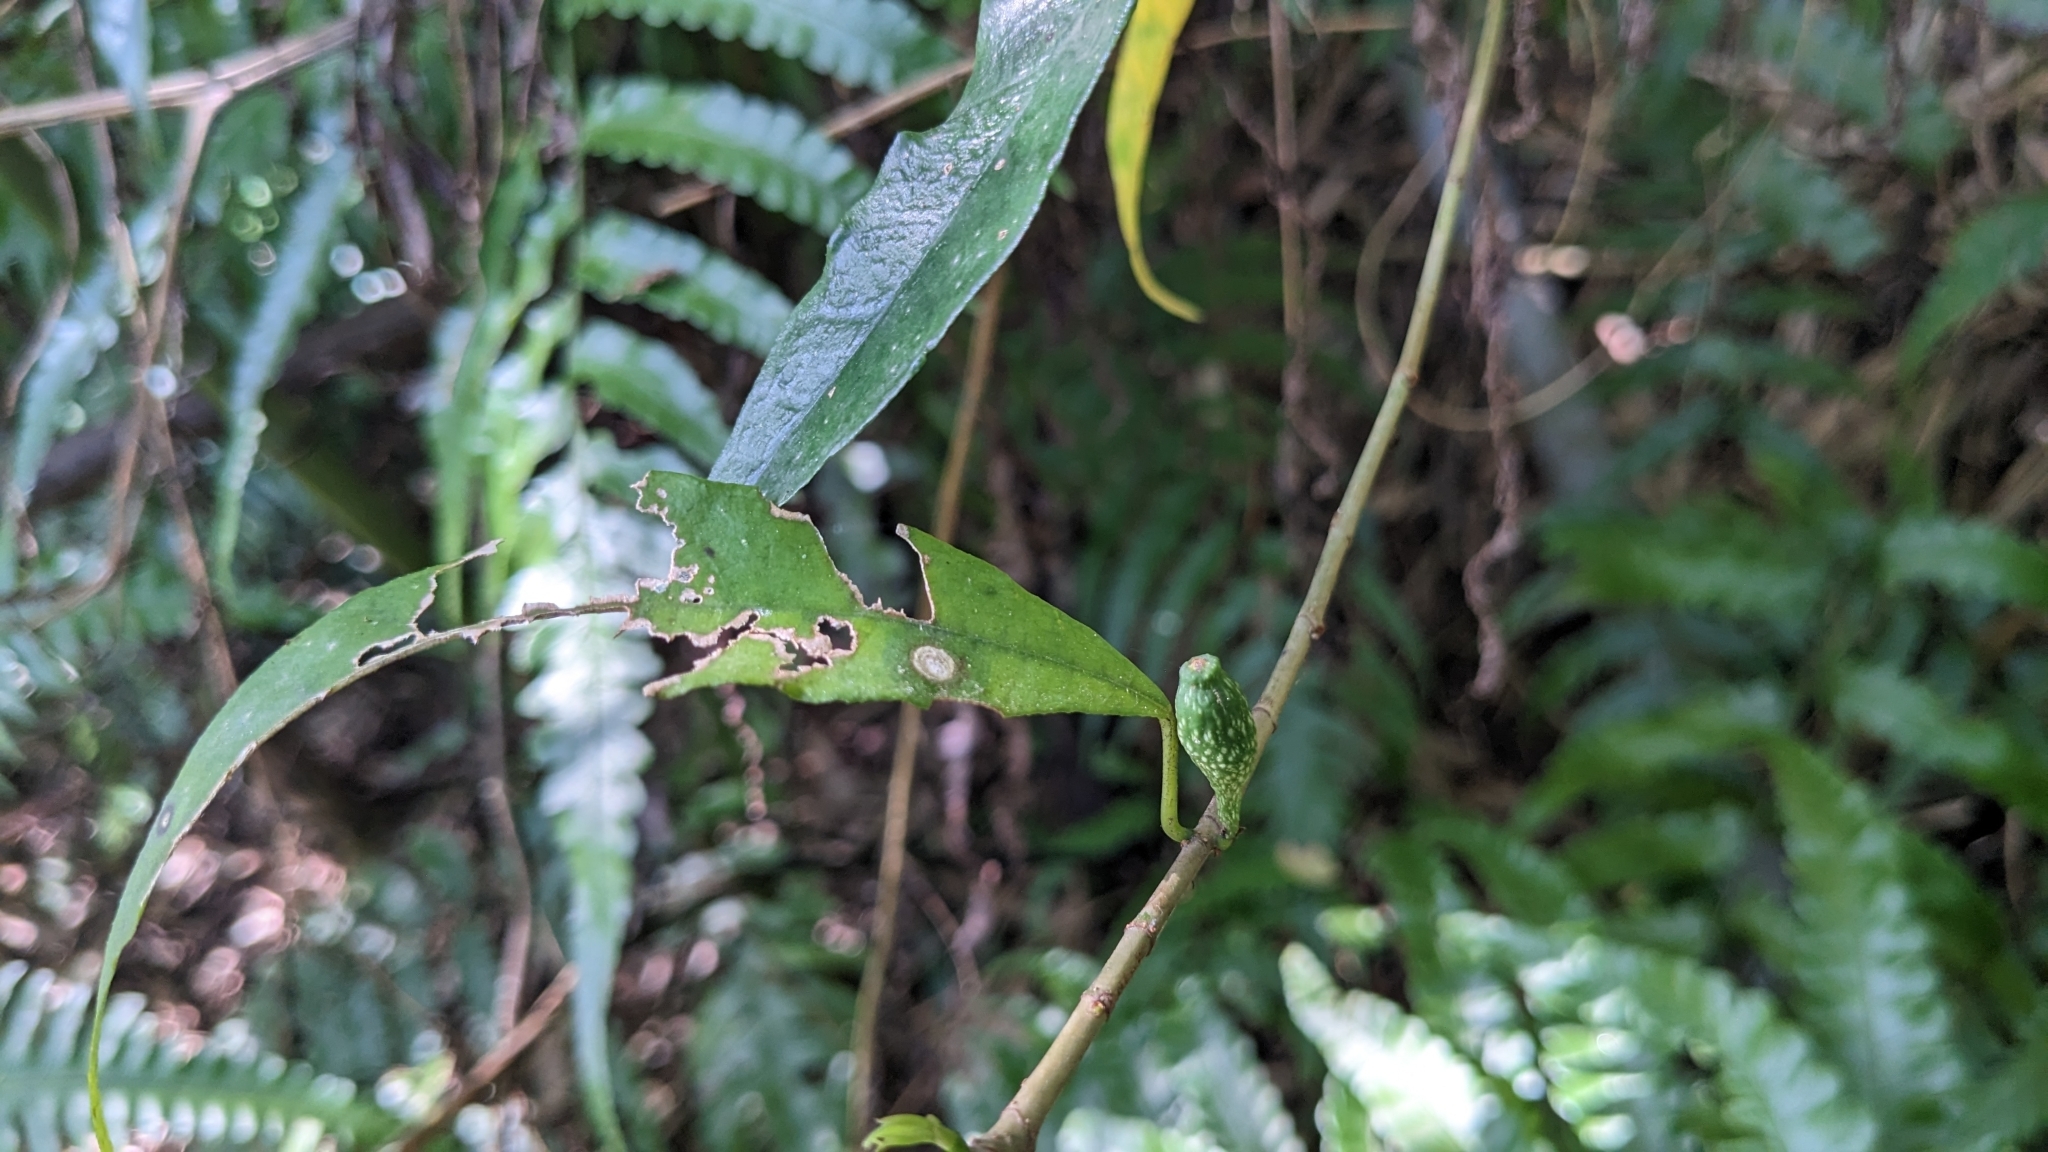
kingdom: Plantae
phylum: Tracheophyta
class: Magnoliopsida
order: Rosales
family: Moraceae
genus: Ficus
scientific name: Ficus formosana
